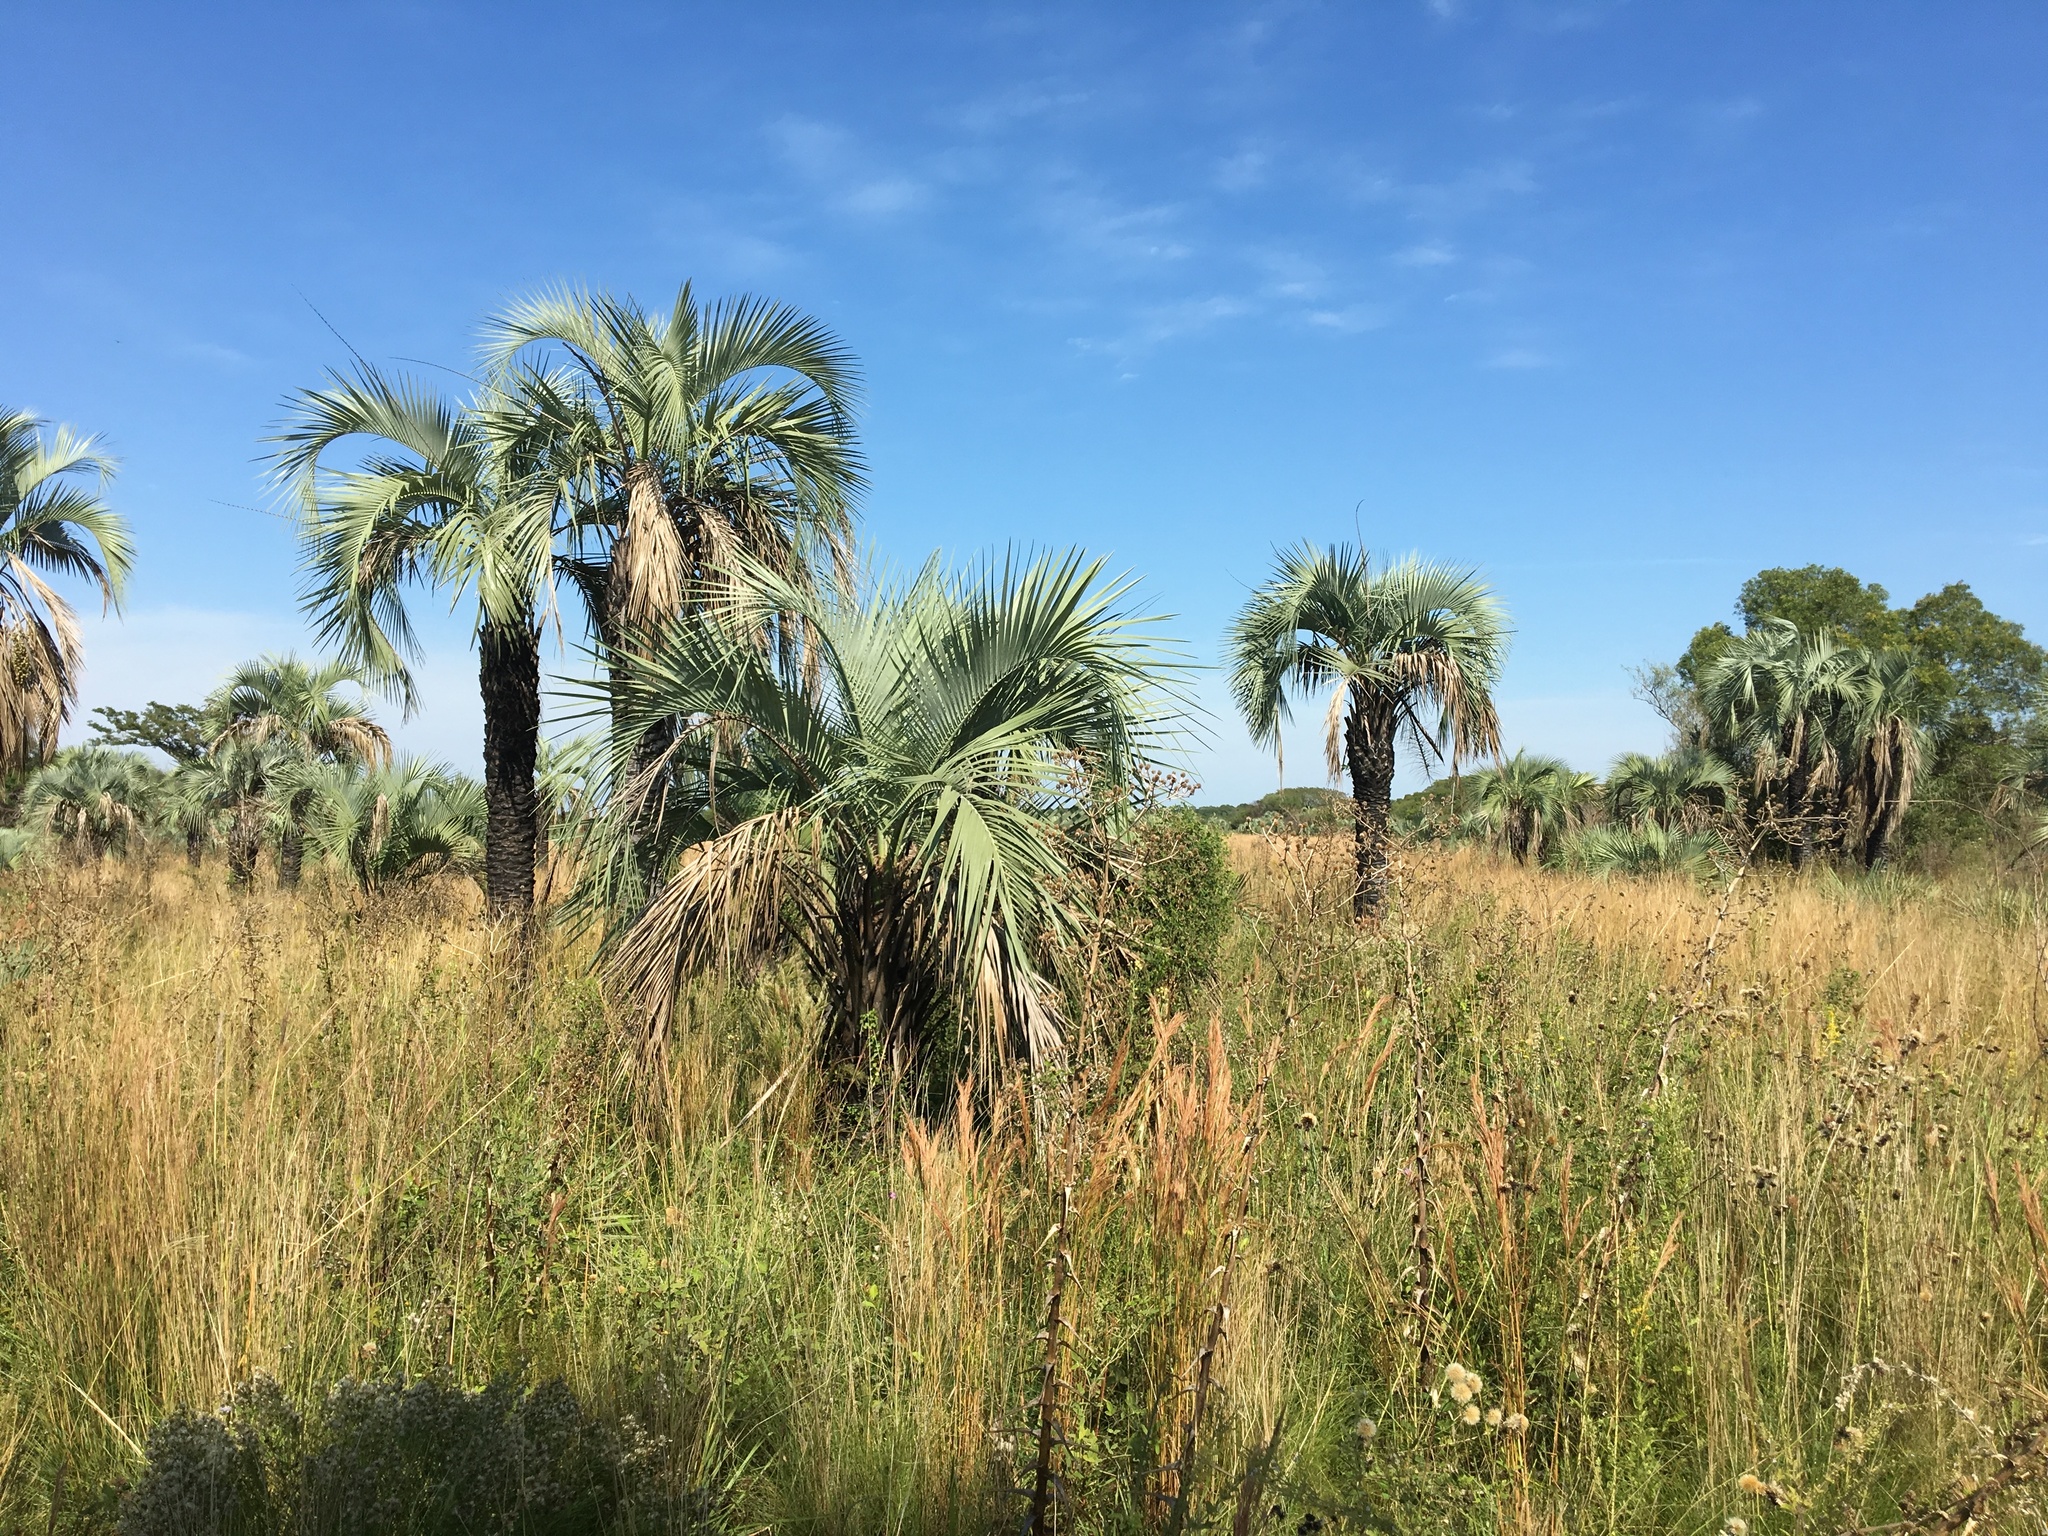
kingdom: Plantae
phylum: Tracheophyta
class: Liliopsida
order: Arecales
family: Arecaceae
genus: Butia
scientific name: Butia yatay
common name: Yatay palm
